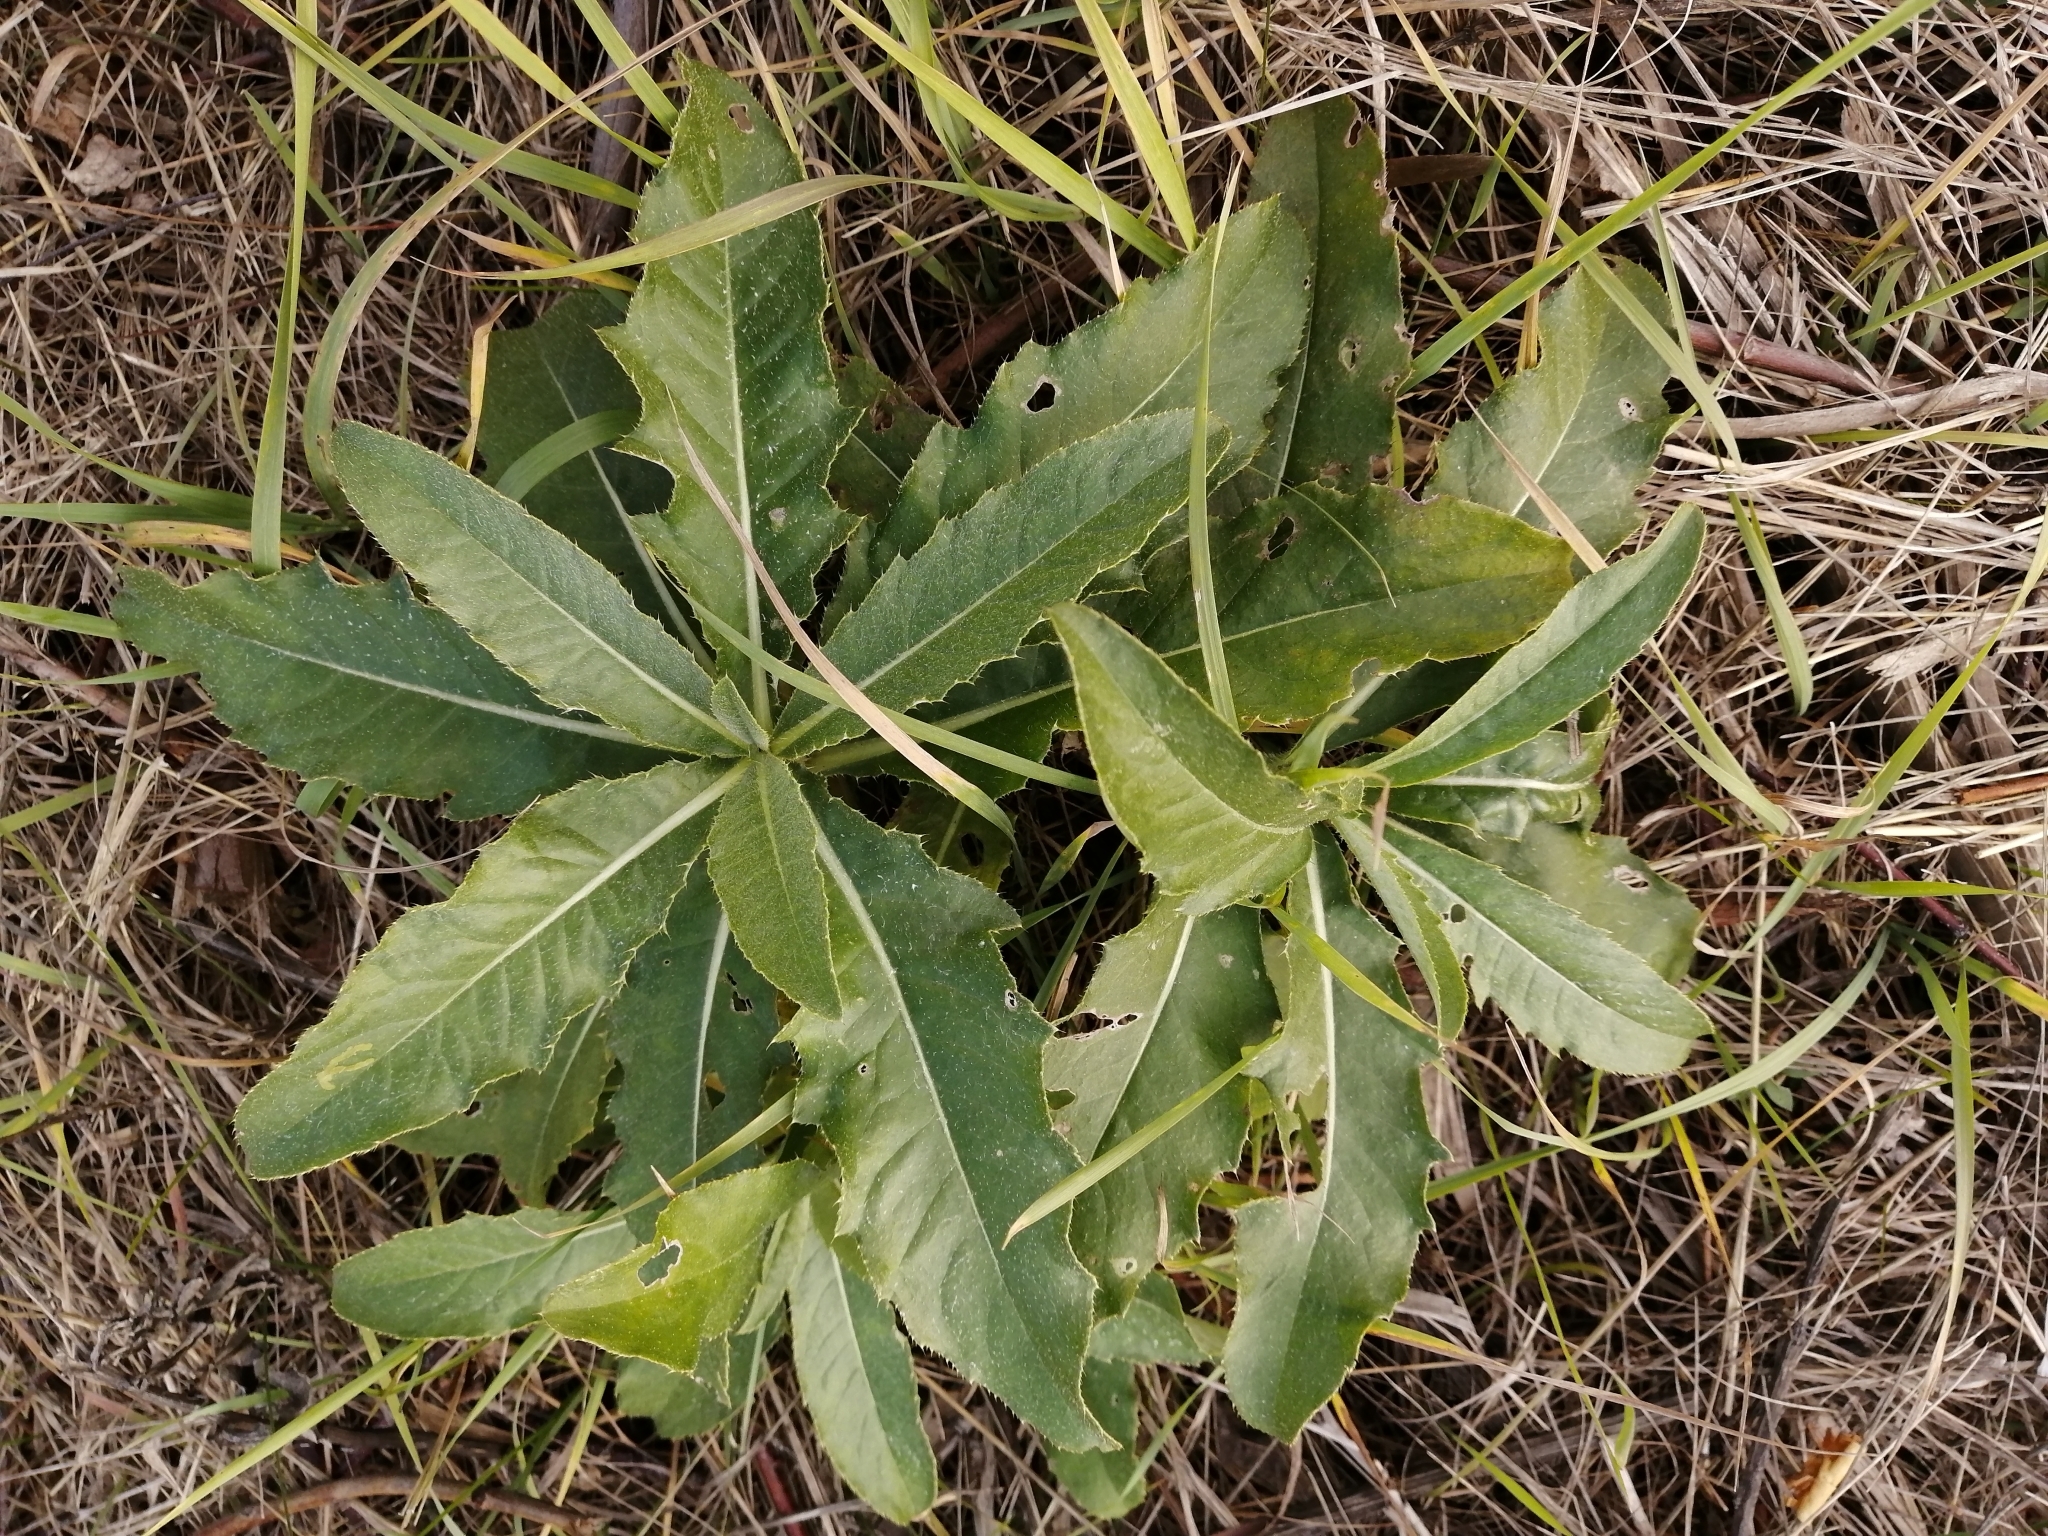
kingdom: Plantae
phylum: Tracheophyta
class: Magnoliopsida
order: Asterales
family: Asteraceae
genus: Cirsium
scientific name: Cirsium arvense
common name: Creeping thistle
